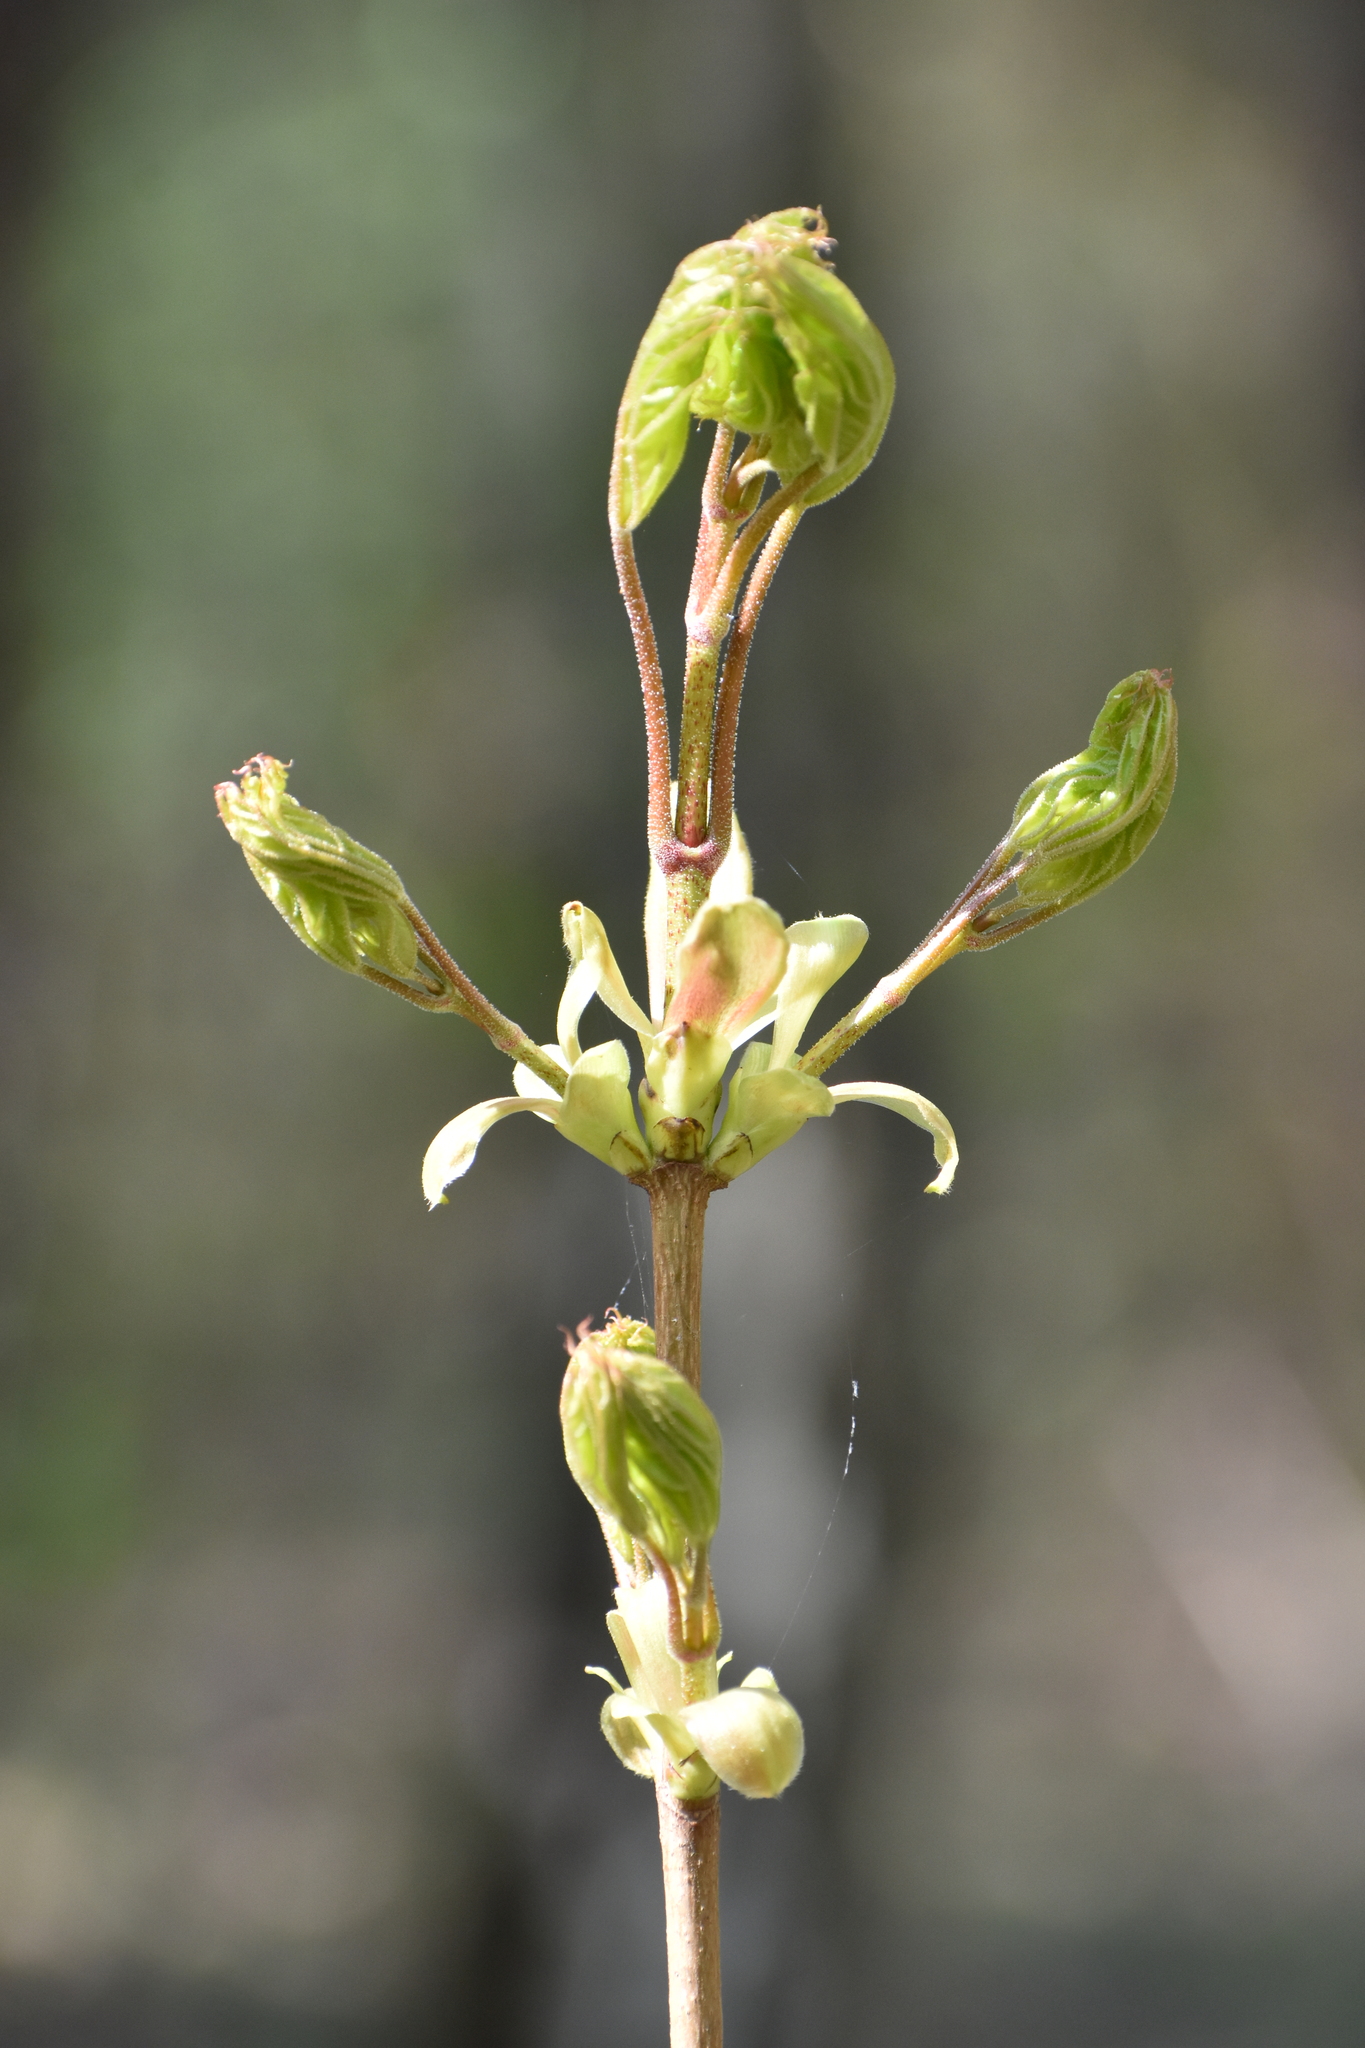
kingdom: Plantae
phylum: Tracheophyta
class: Magnoliopsida
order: Sapindales
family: Sapindaceae
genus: Acer
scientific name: Acer platanoides
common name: Norway maple
